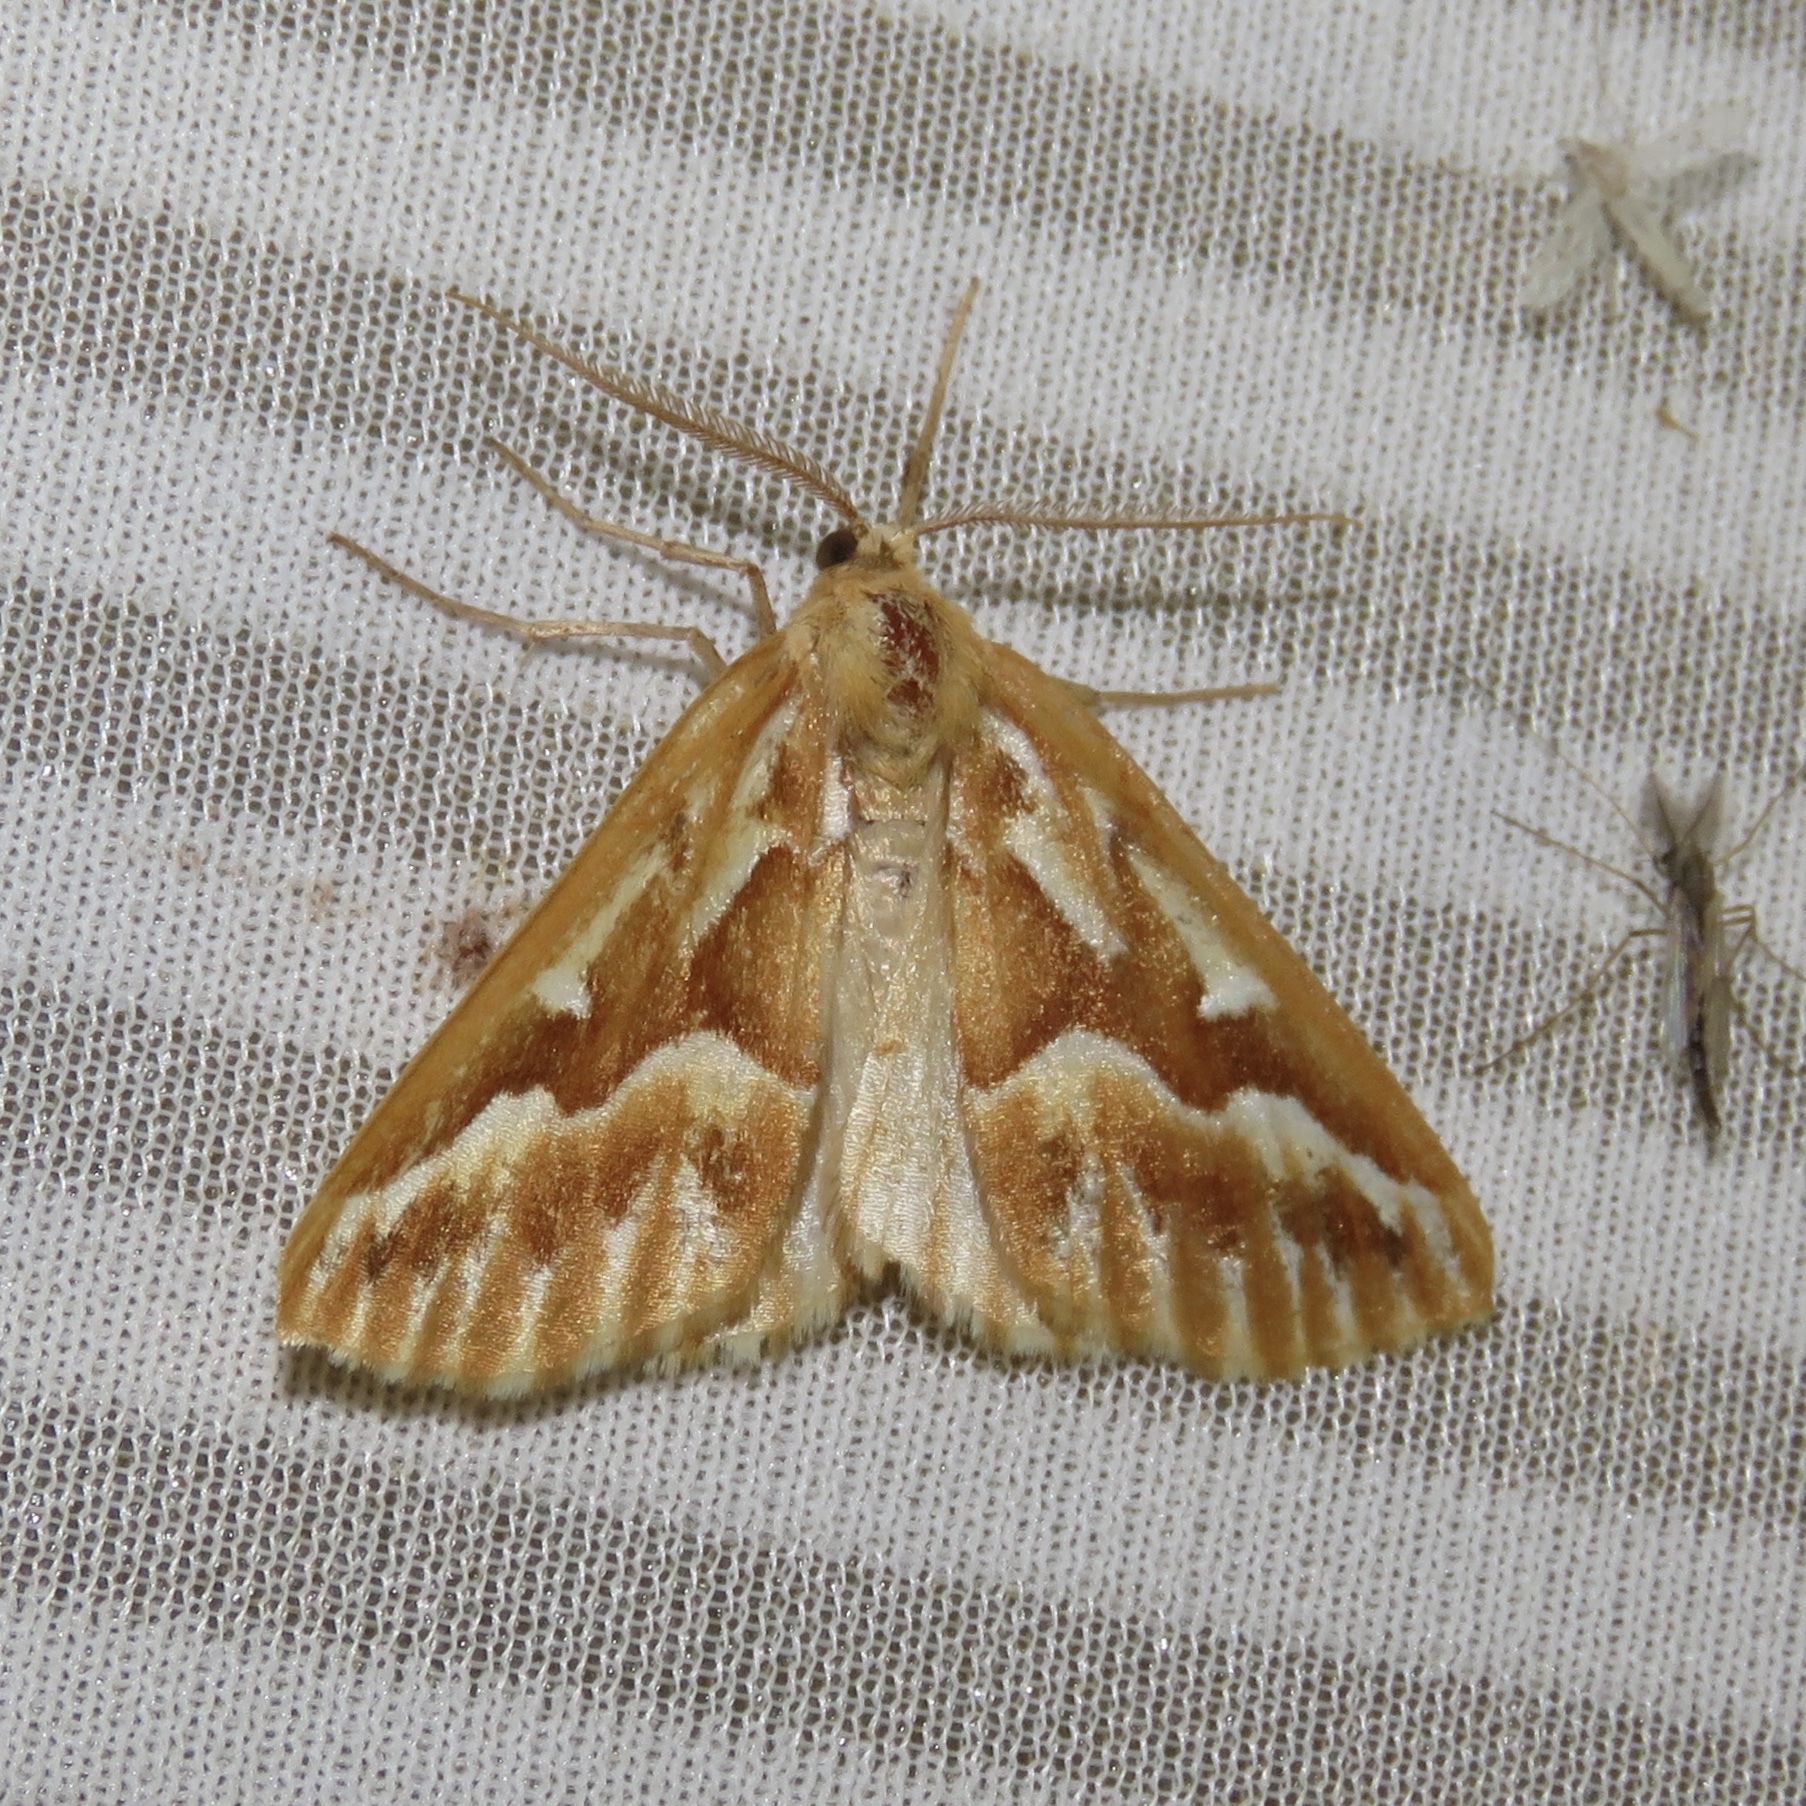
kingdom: Animalia
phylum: Arthropoda
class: Insecta
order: Lepidoptera
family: Geometridae
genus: Caripeta
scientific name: Caripeta piniata
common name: Northern pine looper moth
